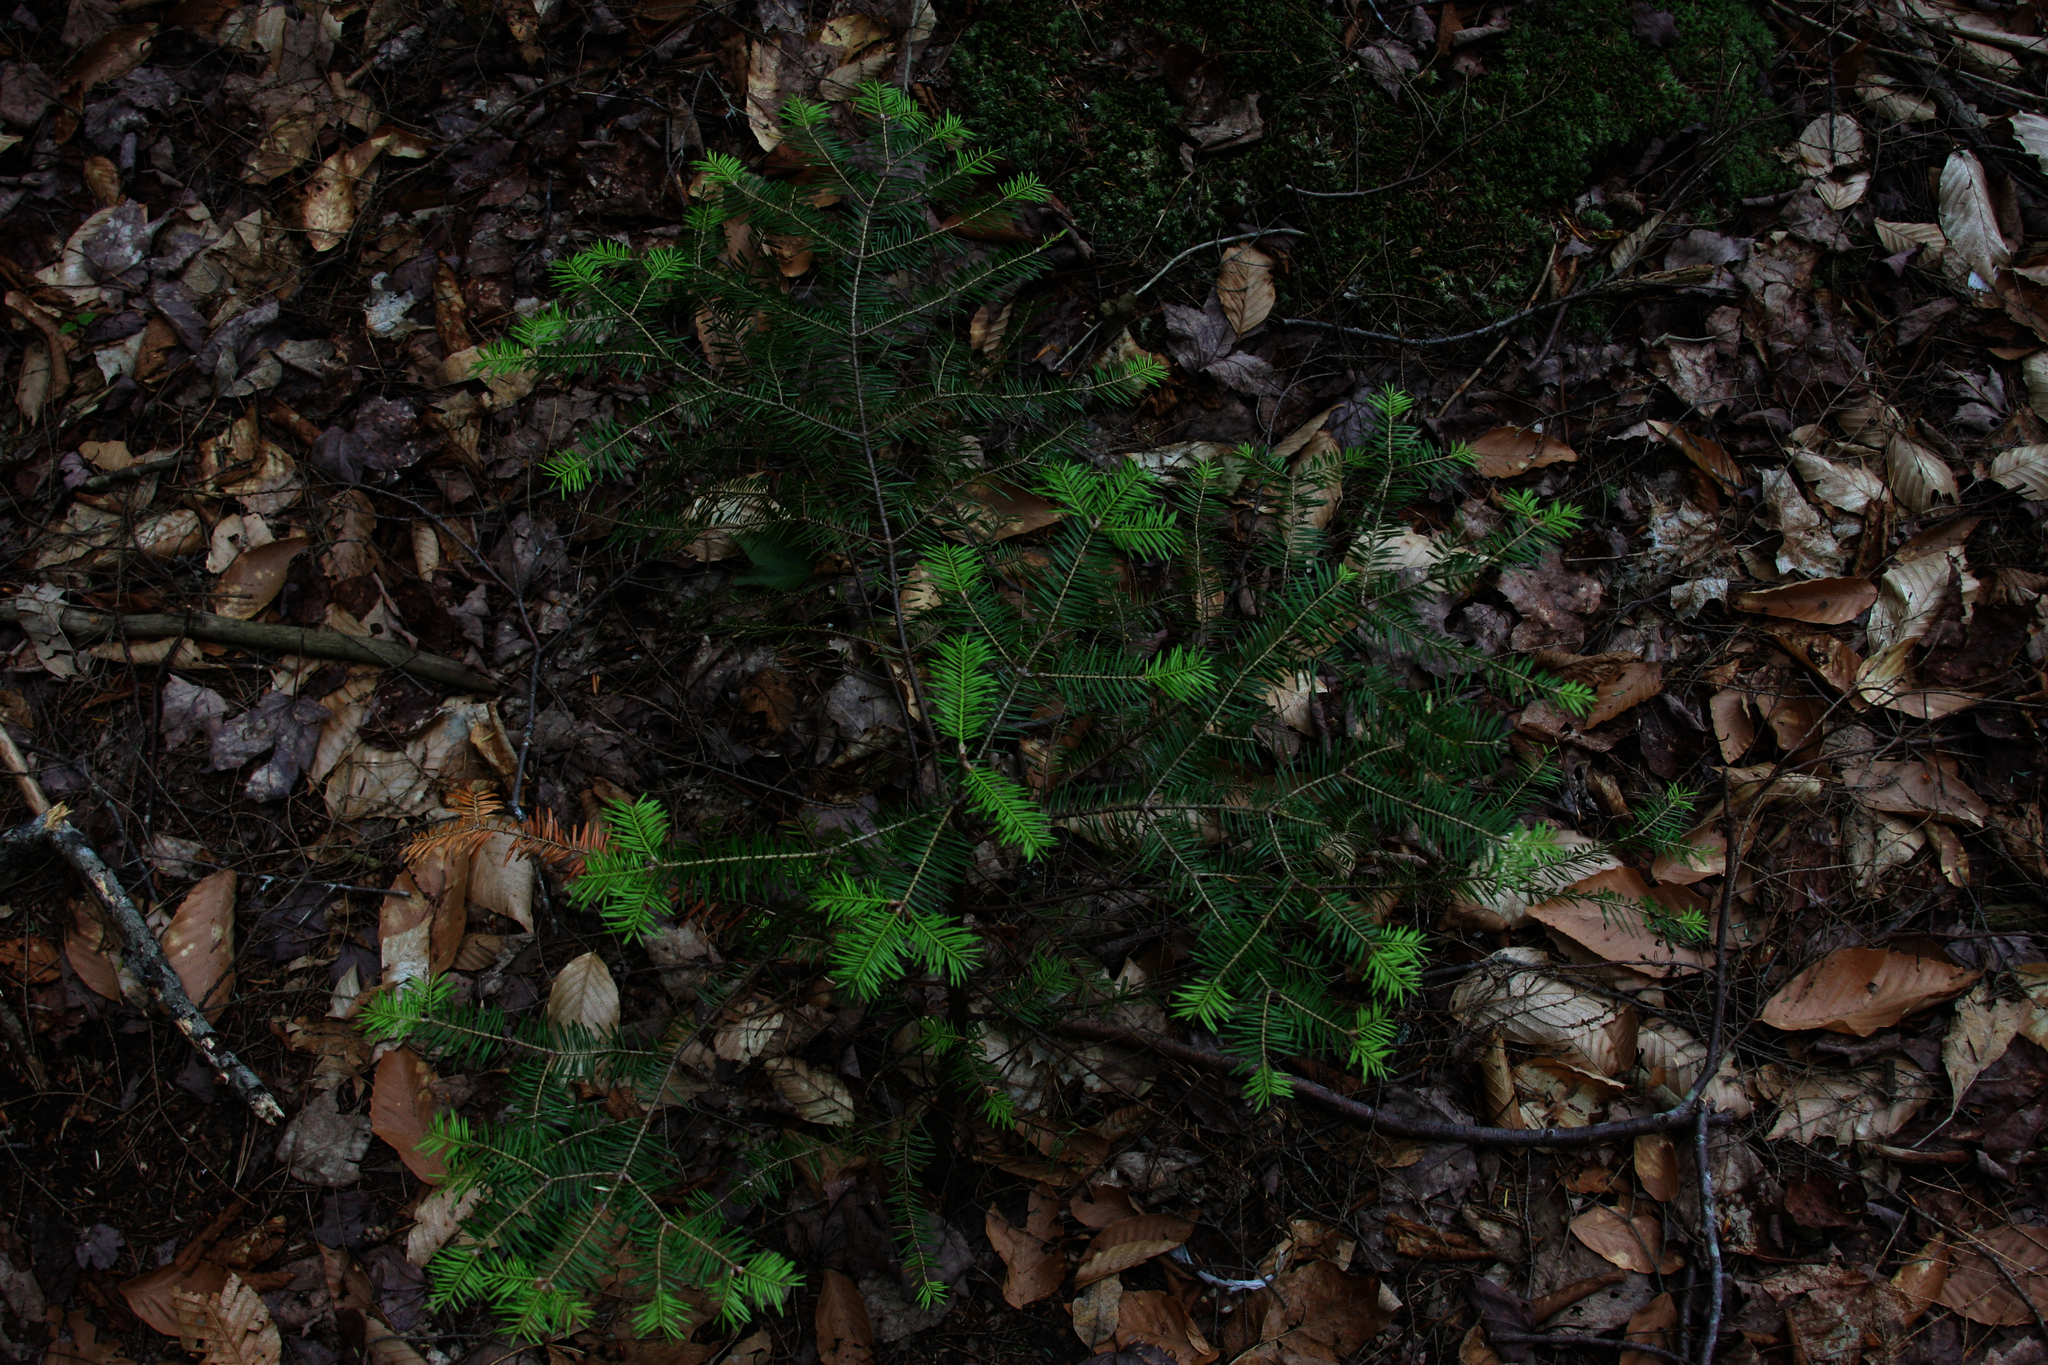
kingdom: Plantae
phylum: Tracheophyta
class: Pinopsida
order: Pinales
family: Pinaceae
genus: Abies
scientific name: Abies balsamea
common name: Balsam fir
